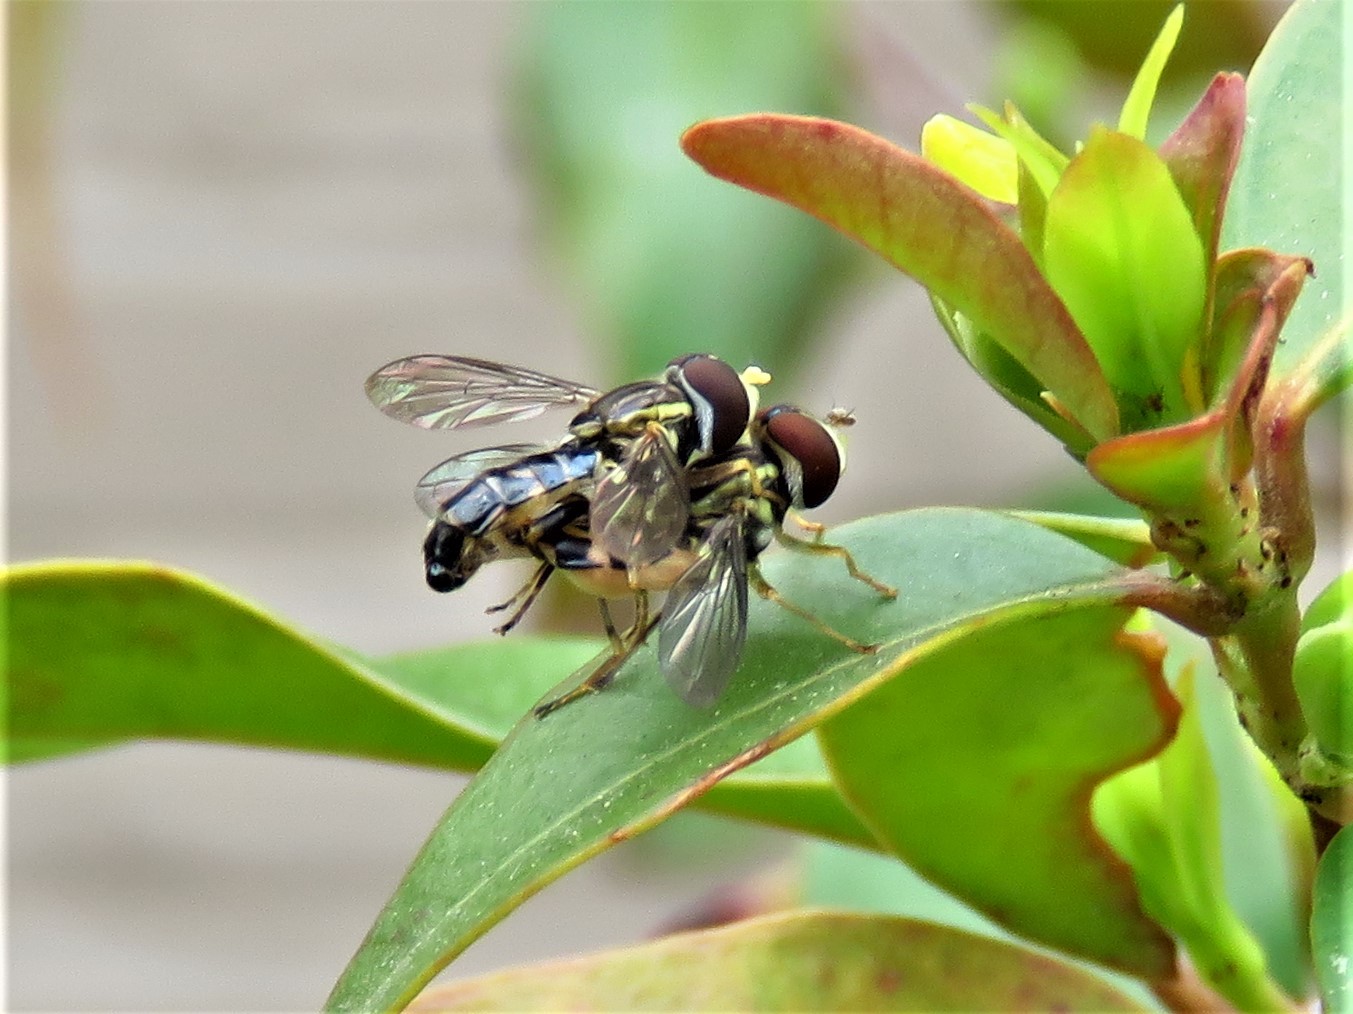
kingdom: Animalia
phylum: Arthropoda
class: Insecta
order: Diptera
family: Syrphidae
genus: Toxomerus
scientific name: Toxomerus geminatus
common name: Eastern calligrapher
